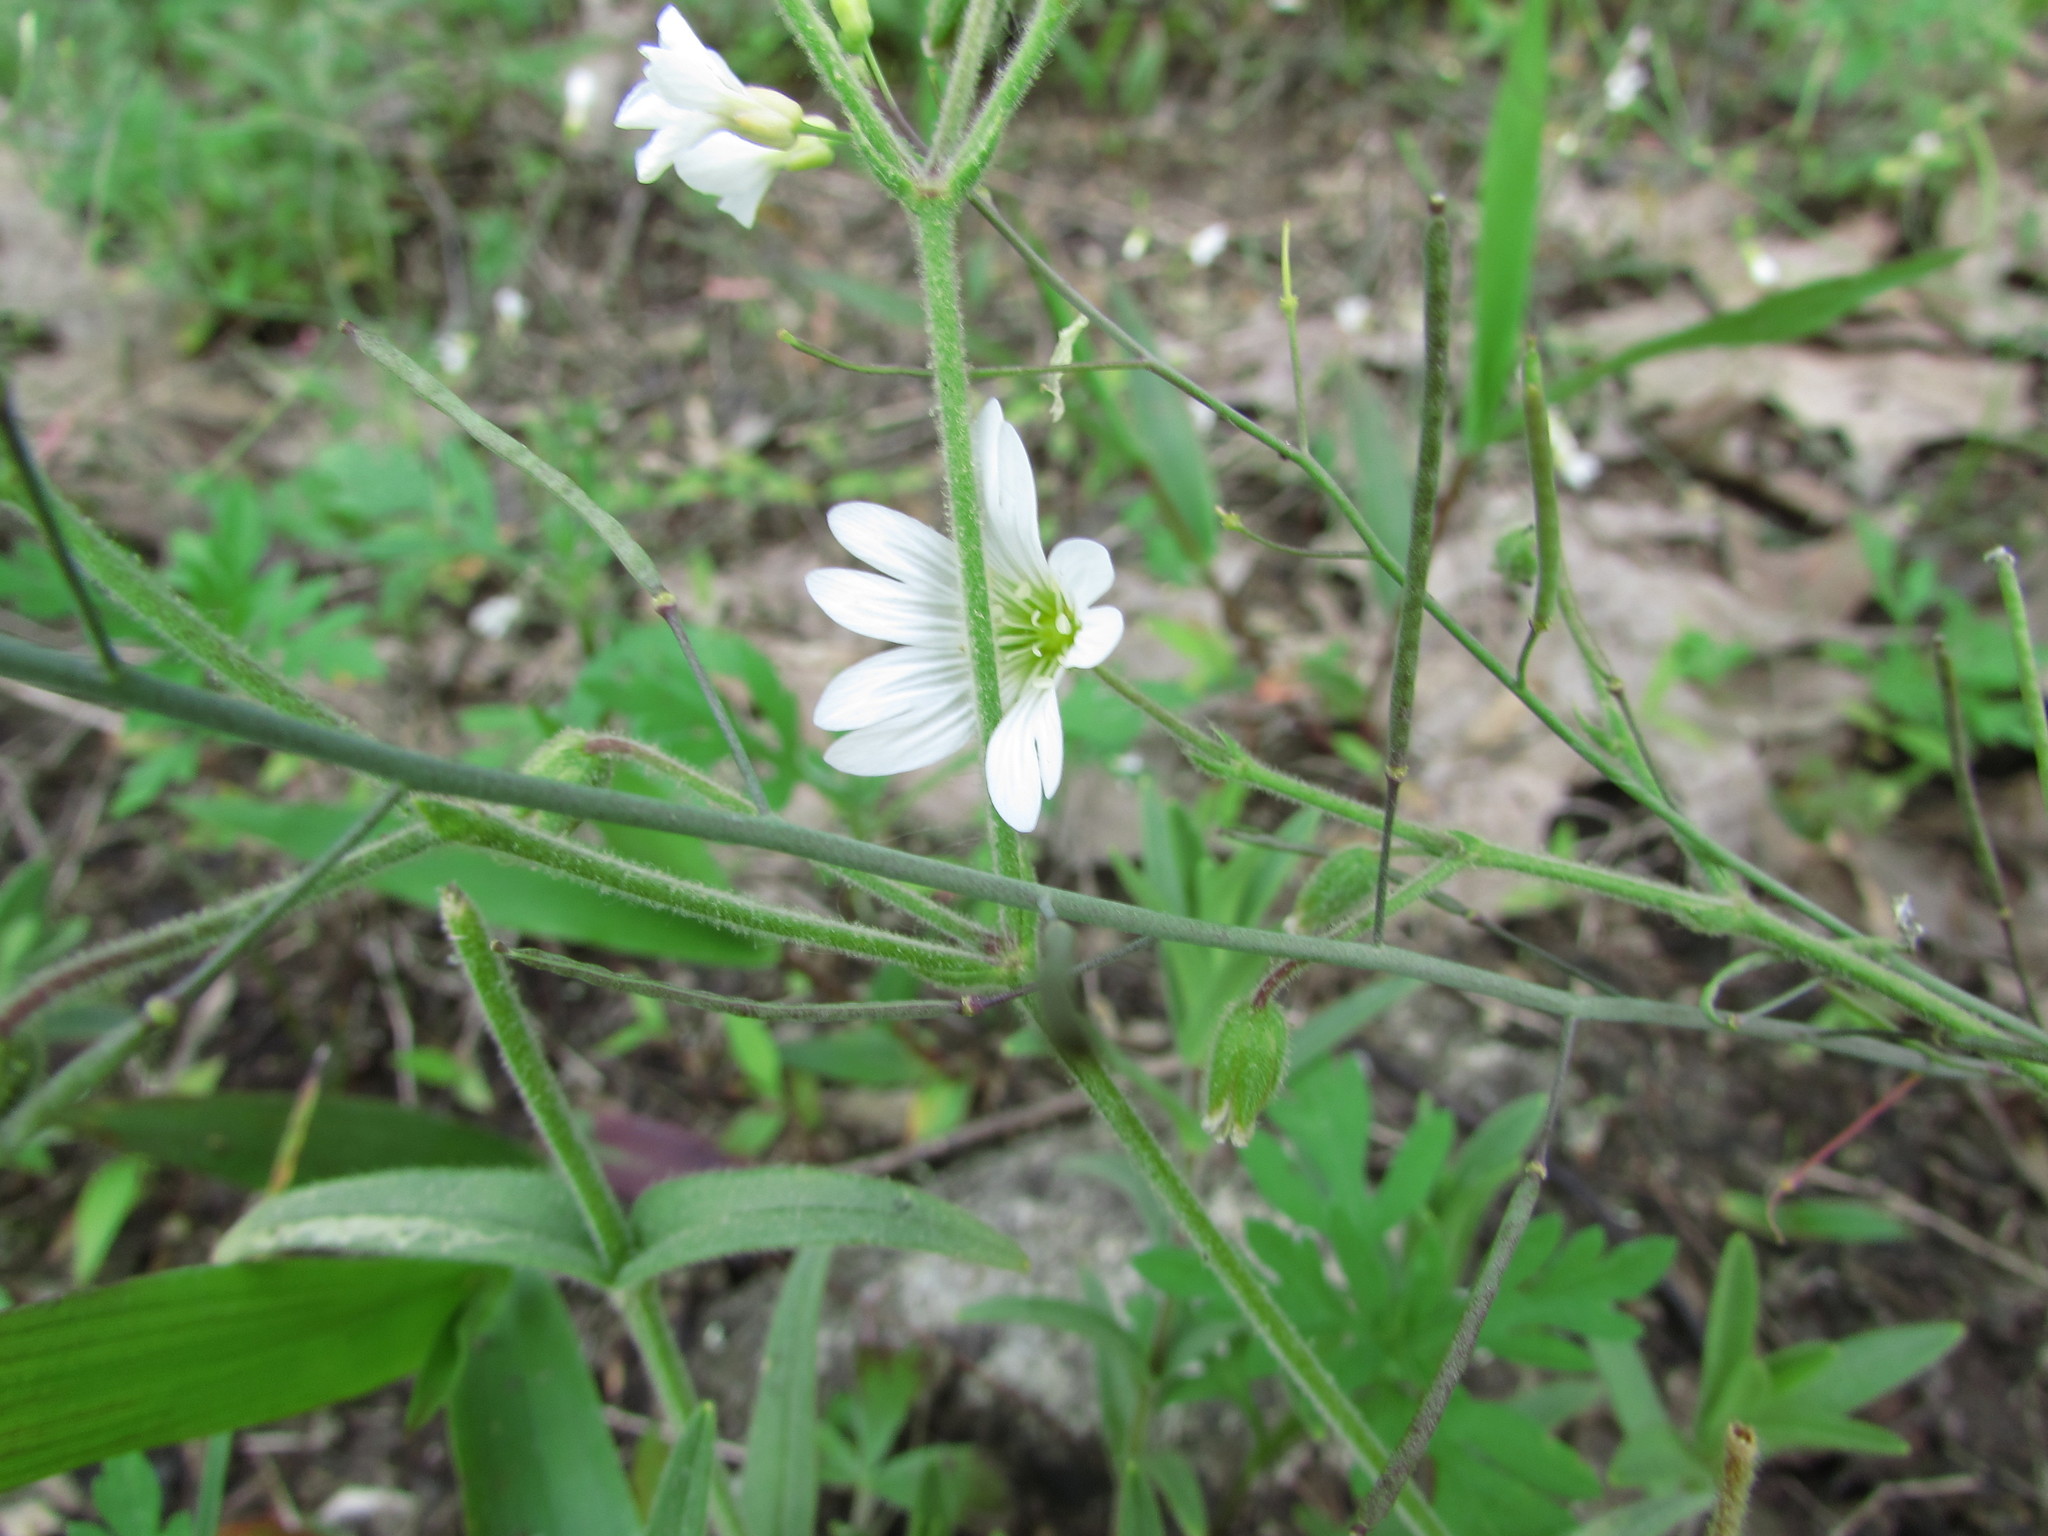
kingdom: Plantae
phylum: Tracheophyta
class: Magnoliopsida
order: Caryophyllales
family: Caryophyllaceae
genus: Cerastium
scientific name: Cerastium velutinum
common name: Barren chickweed
